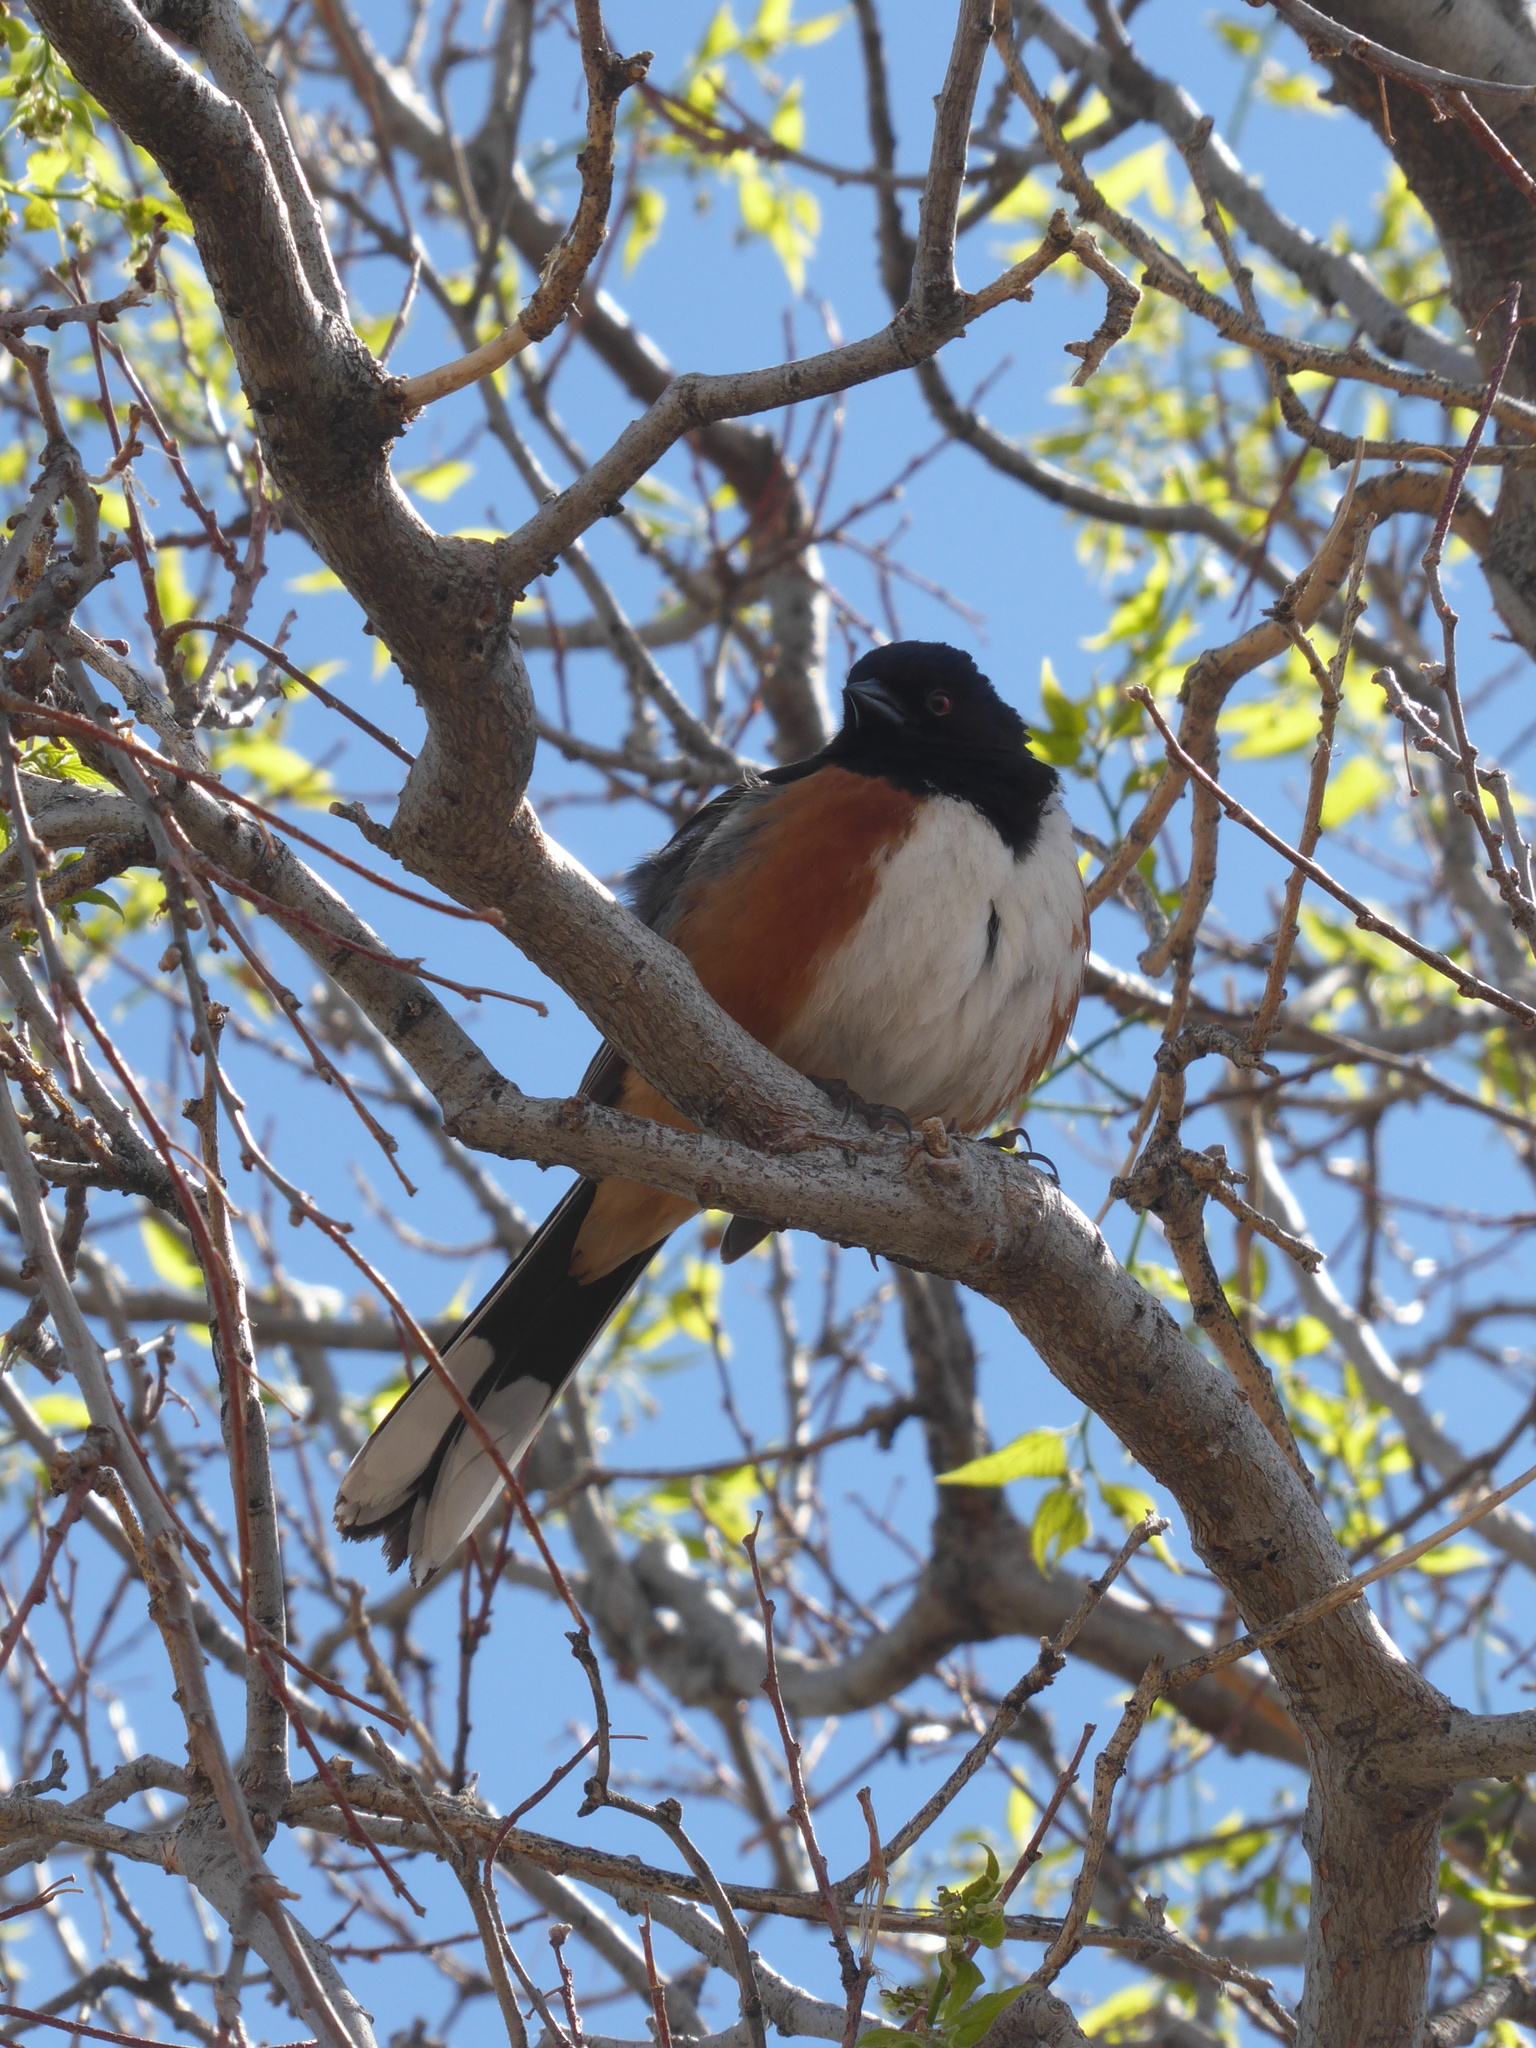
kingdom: Animalia
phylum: Chordata
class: Aves
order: Passeriformes
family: Passerellidae
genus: Pipilo
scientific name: Pipilo maculatus
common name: Spotted towhee
